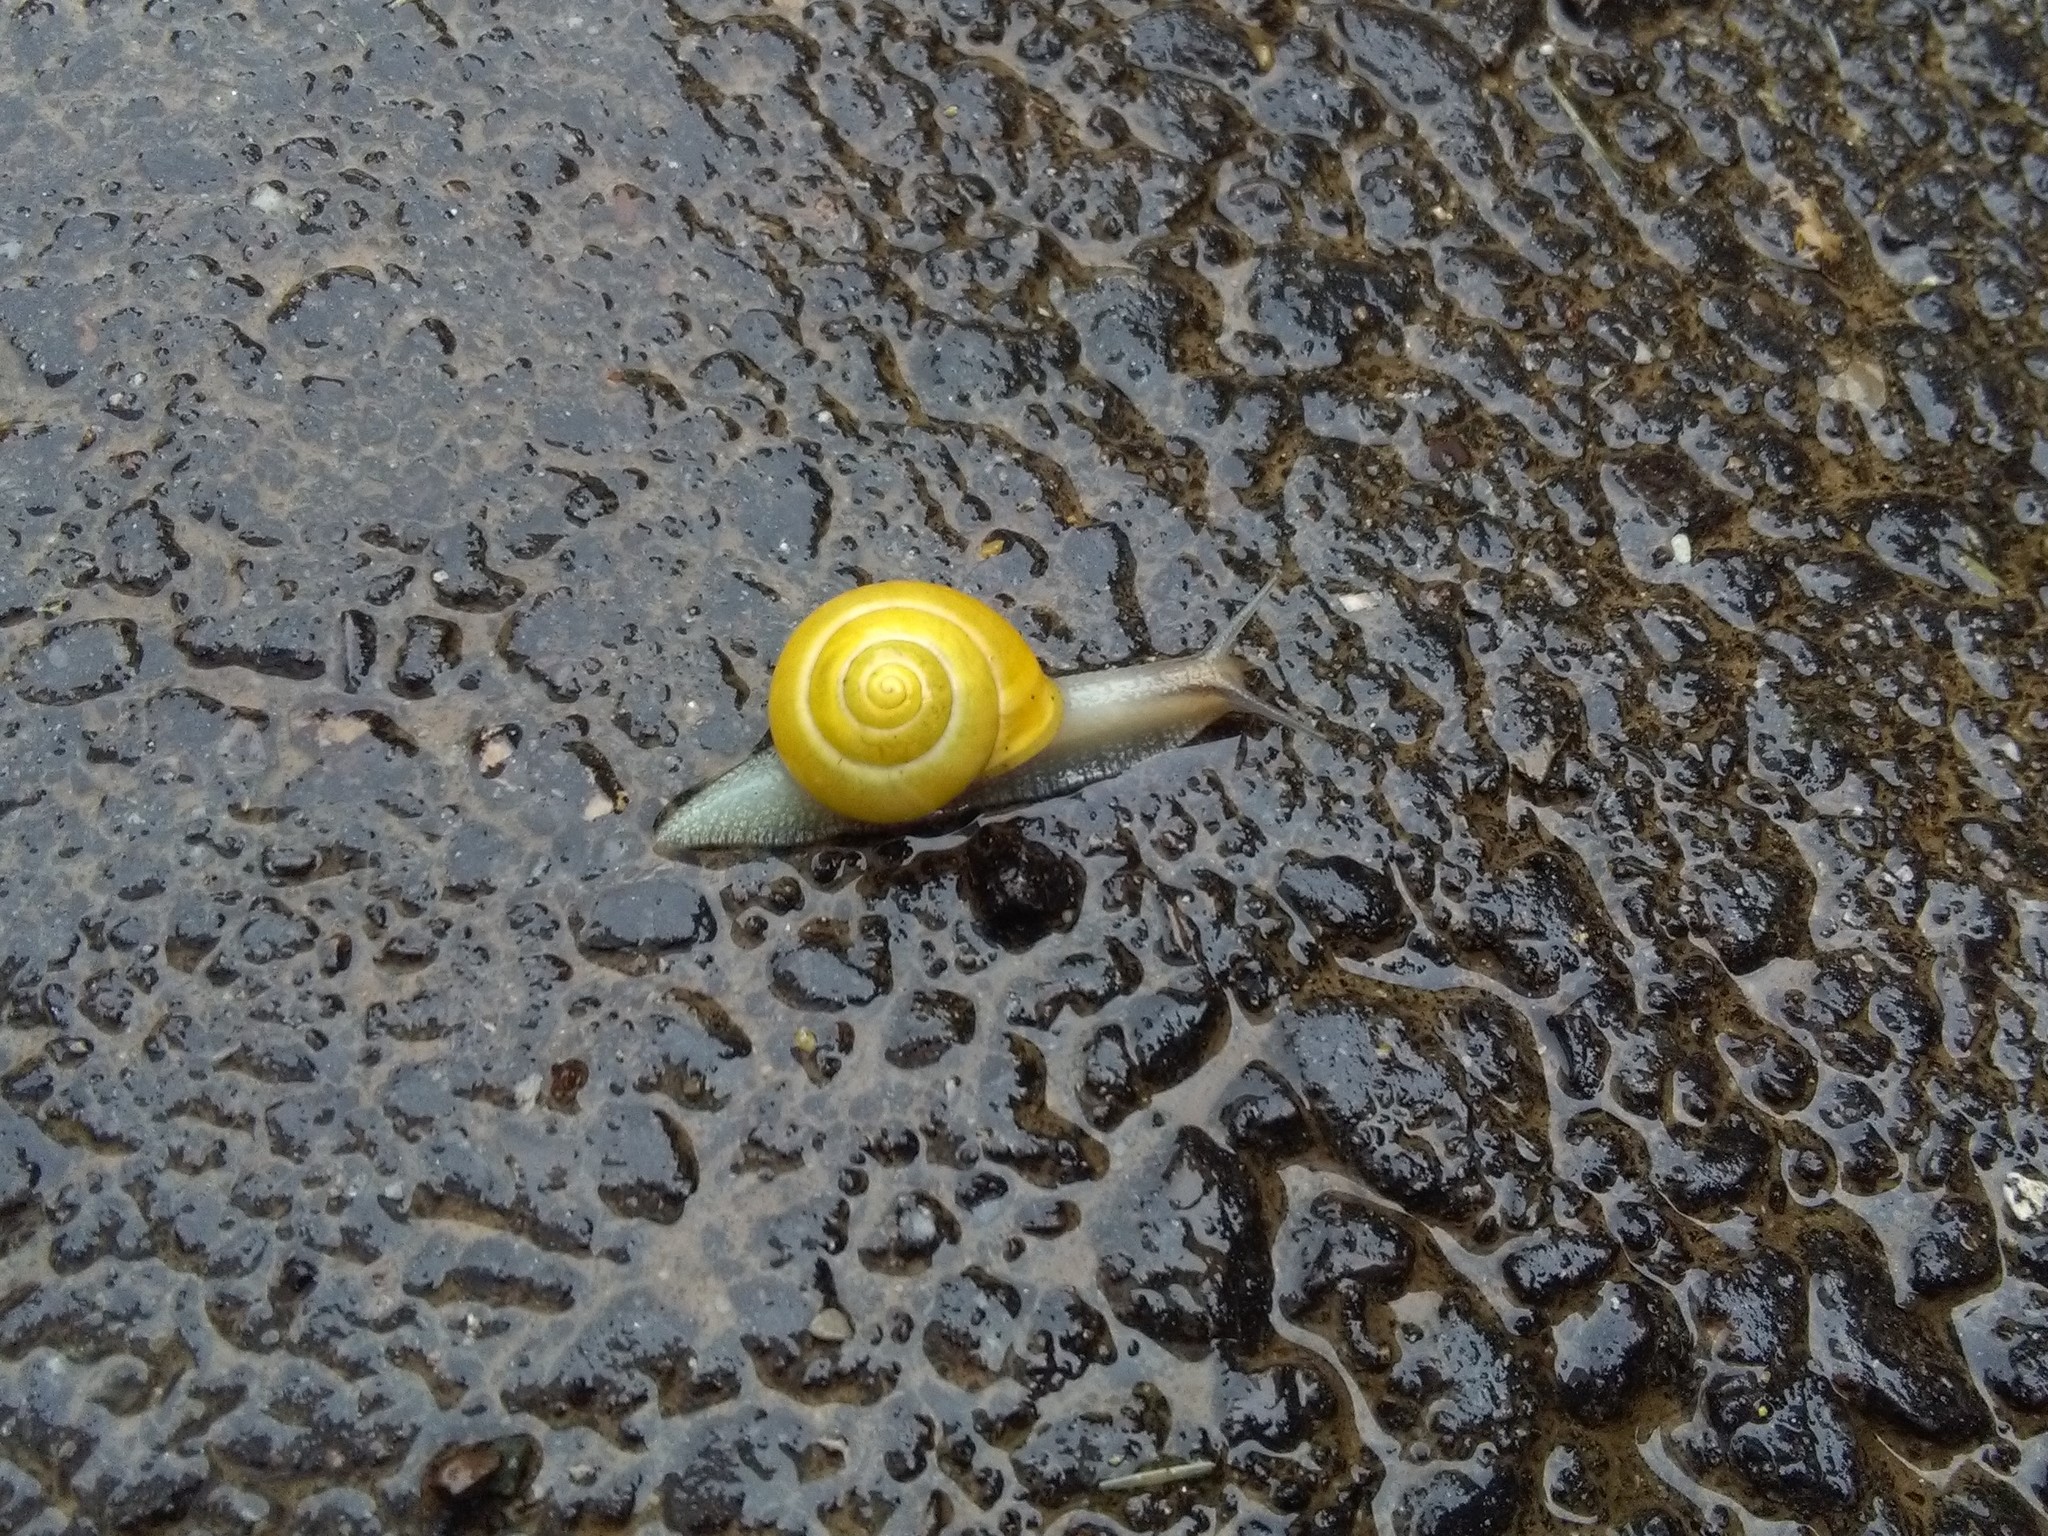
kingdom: Animalia
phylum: Mollusca
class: Gastropoda
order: Stylommatophora
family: Helicidae
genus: Cepaea
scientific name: Cepaea hortensis
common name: White-lip gardensnail
